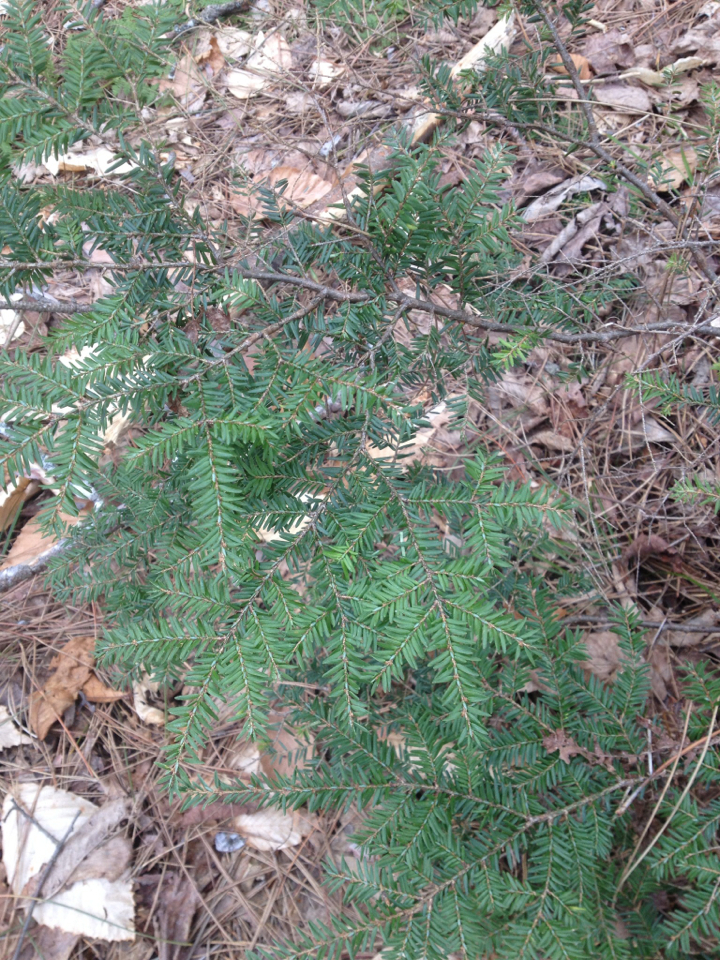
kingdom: Plantae
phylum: Tracheophyta
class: Pinopsida
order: Pinales
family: Pinaceae
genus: Tsuga
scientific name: Tsuga canadensis
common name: Eastern hemlock
